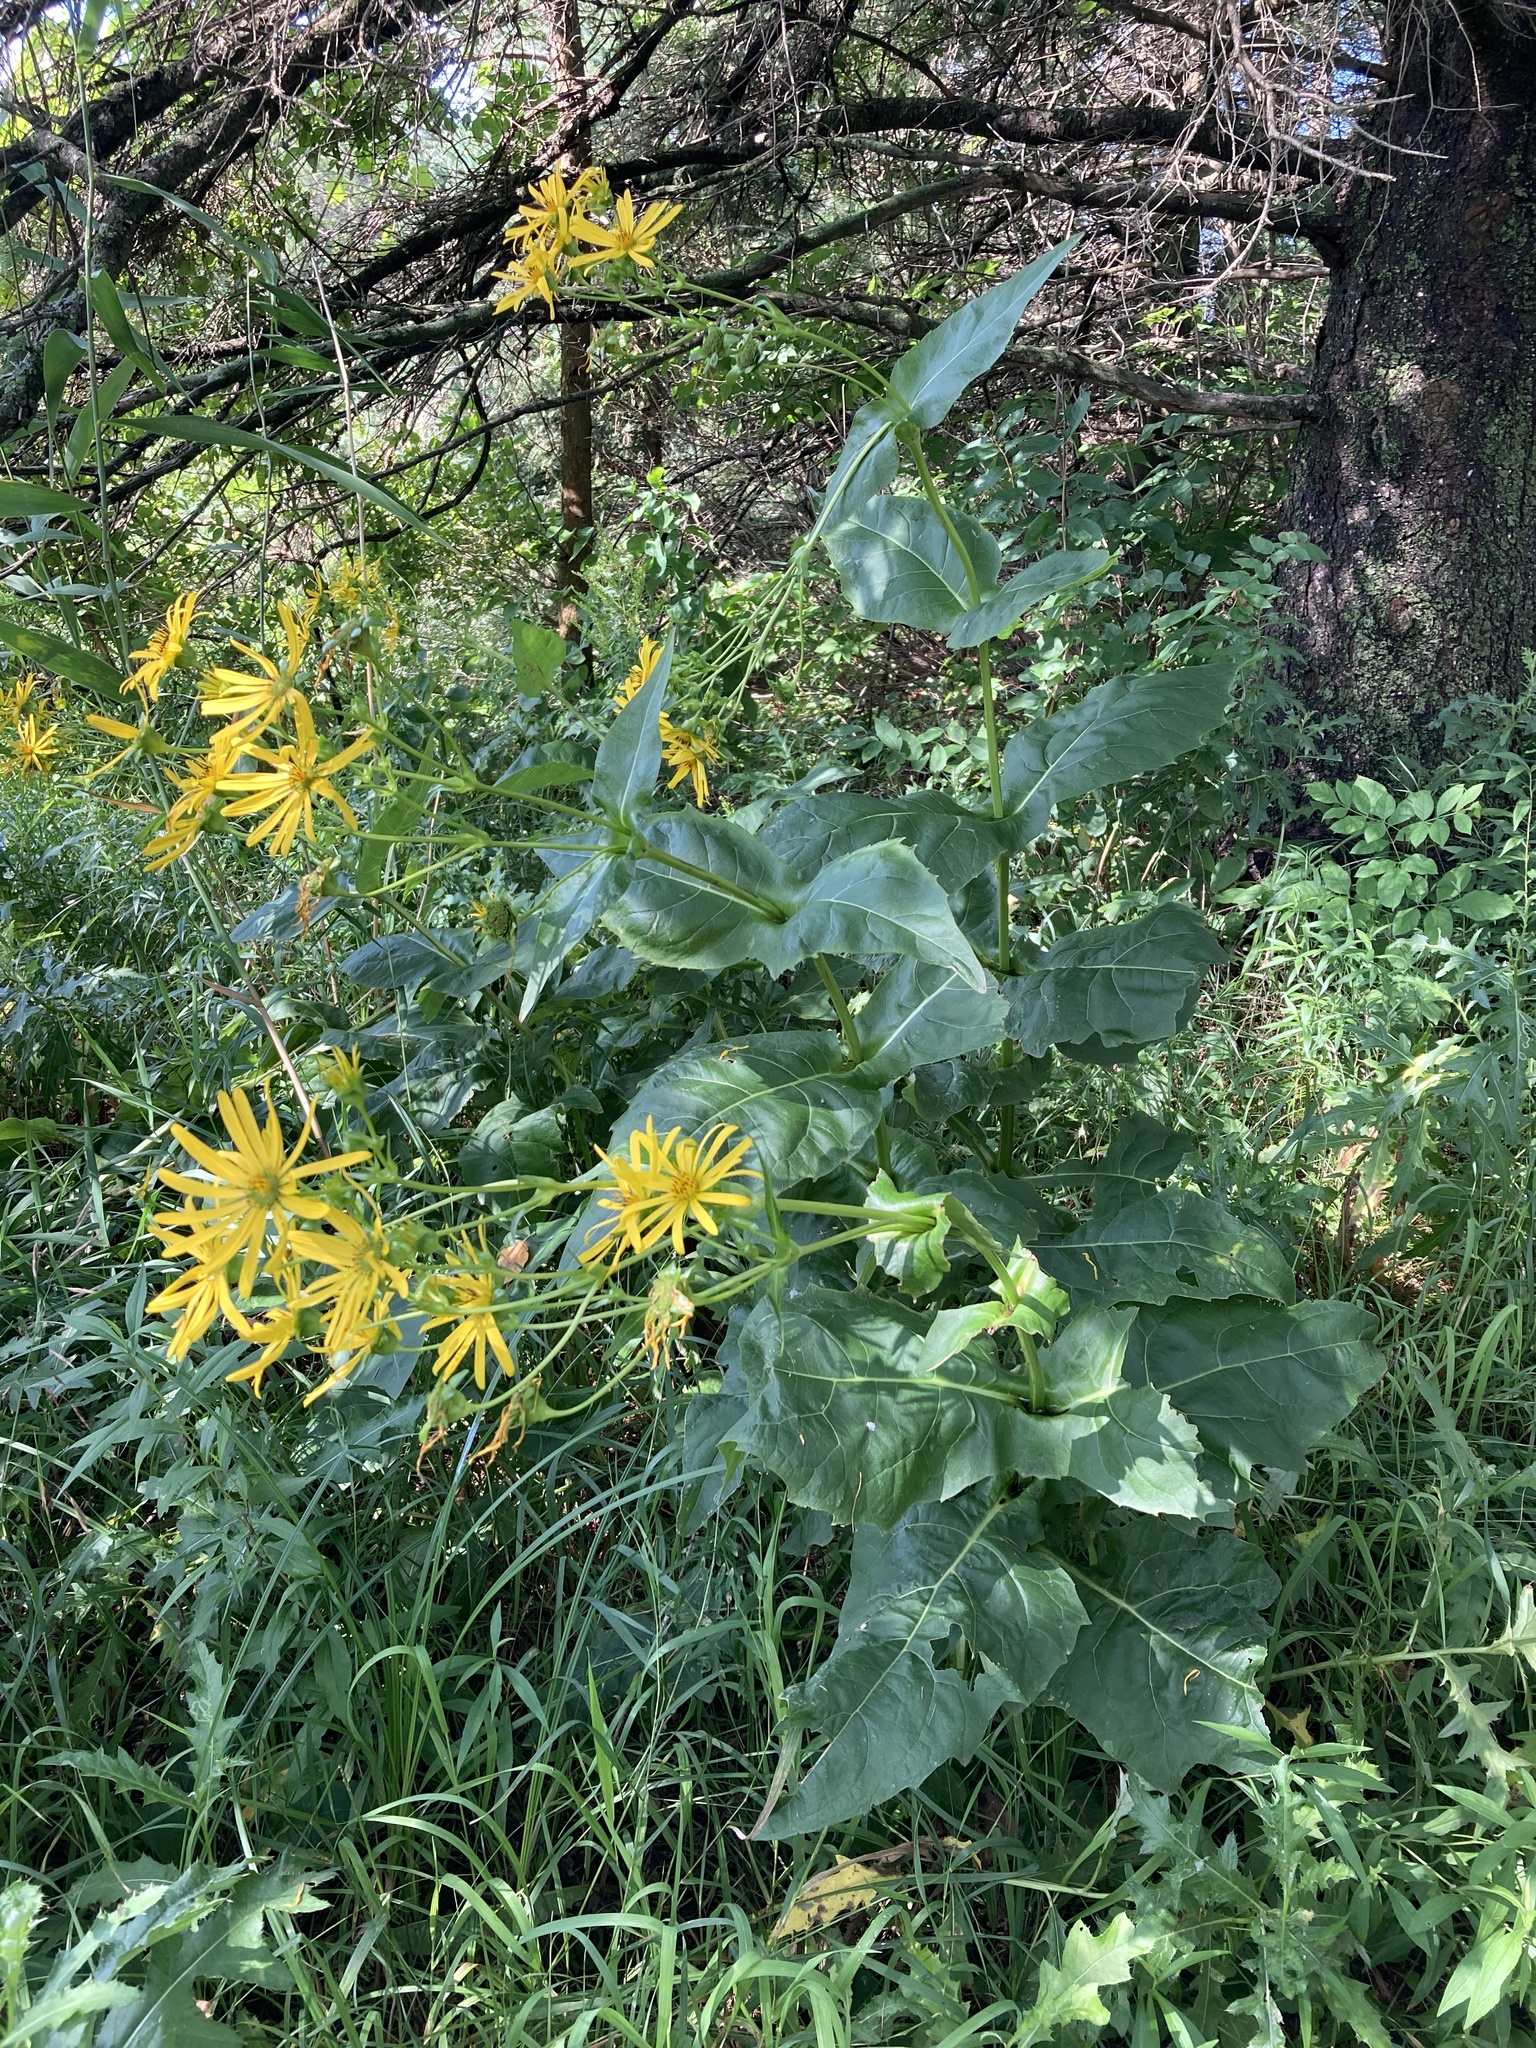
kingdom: Plantae
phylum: Tracheophyta
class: Magnoliopsida
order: Asterales
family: Asteraceae
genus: Silphium
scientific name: Silphium perfoliatum
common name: Cup-plant
